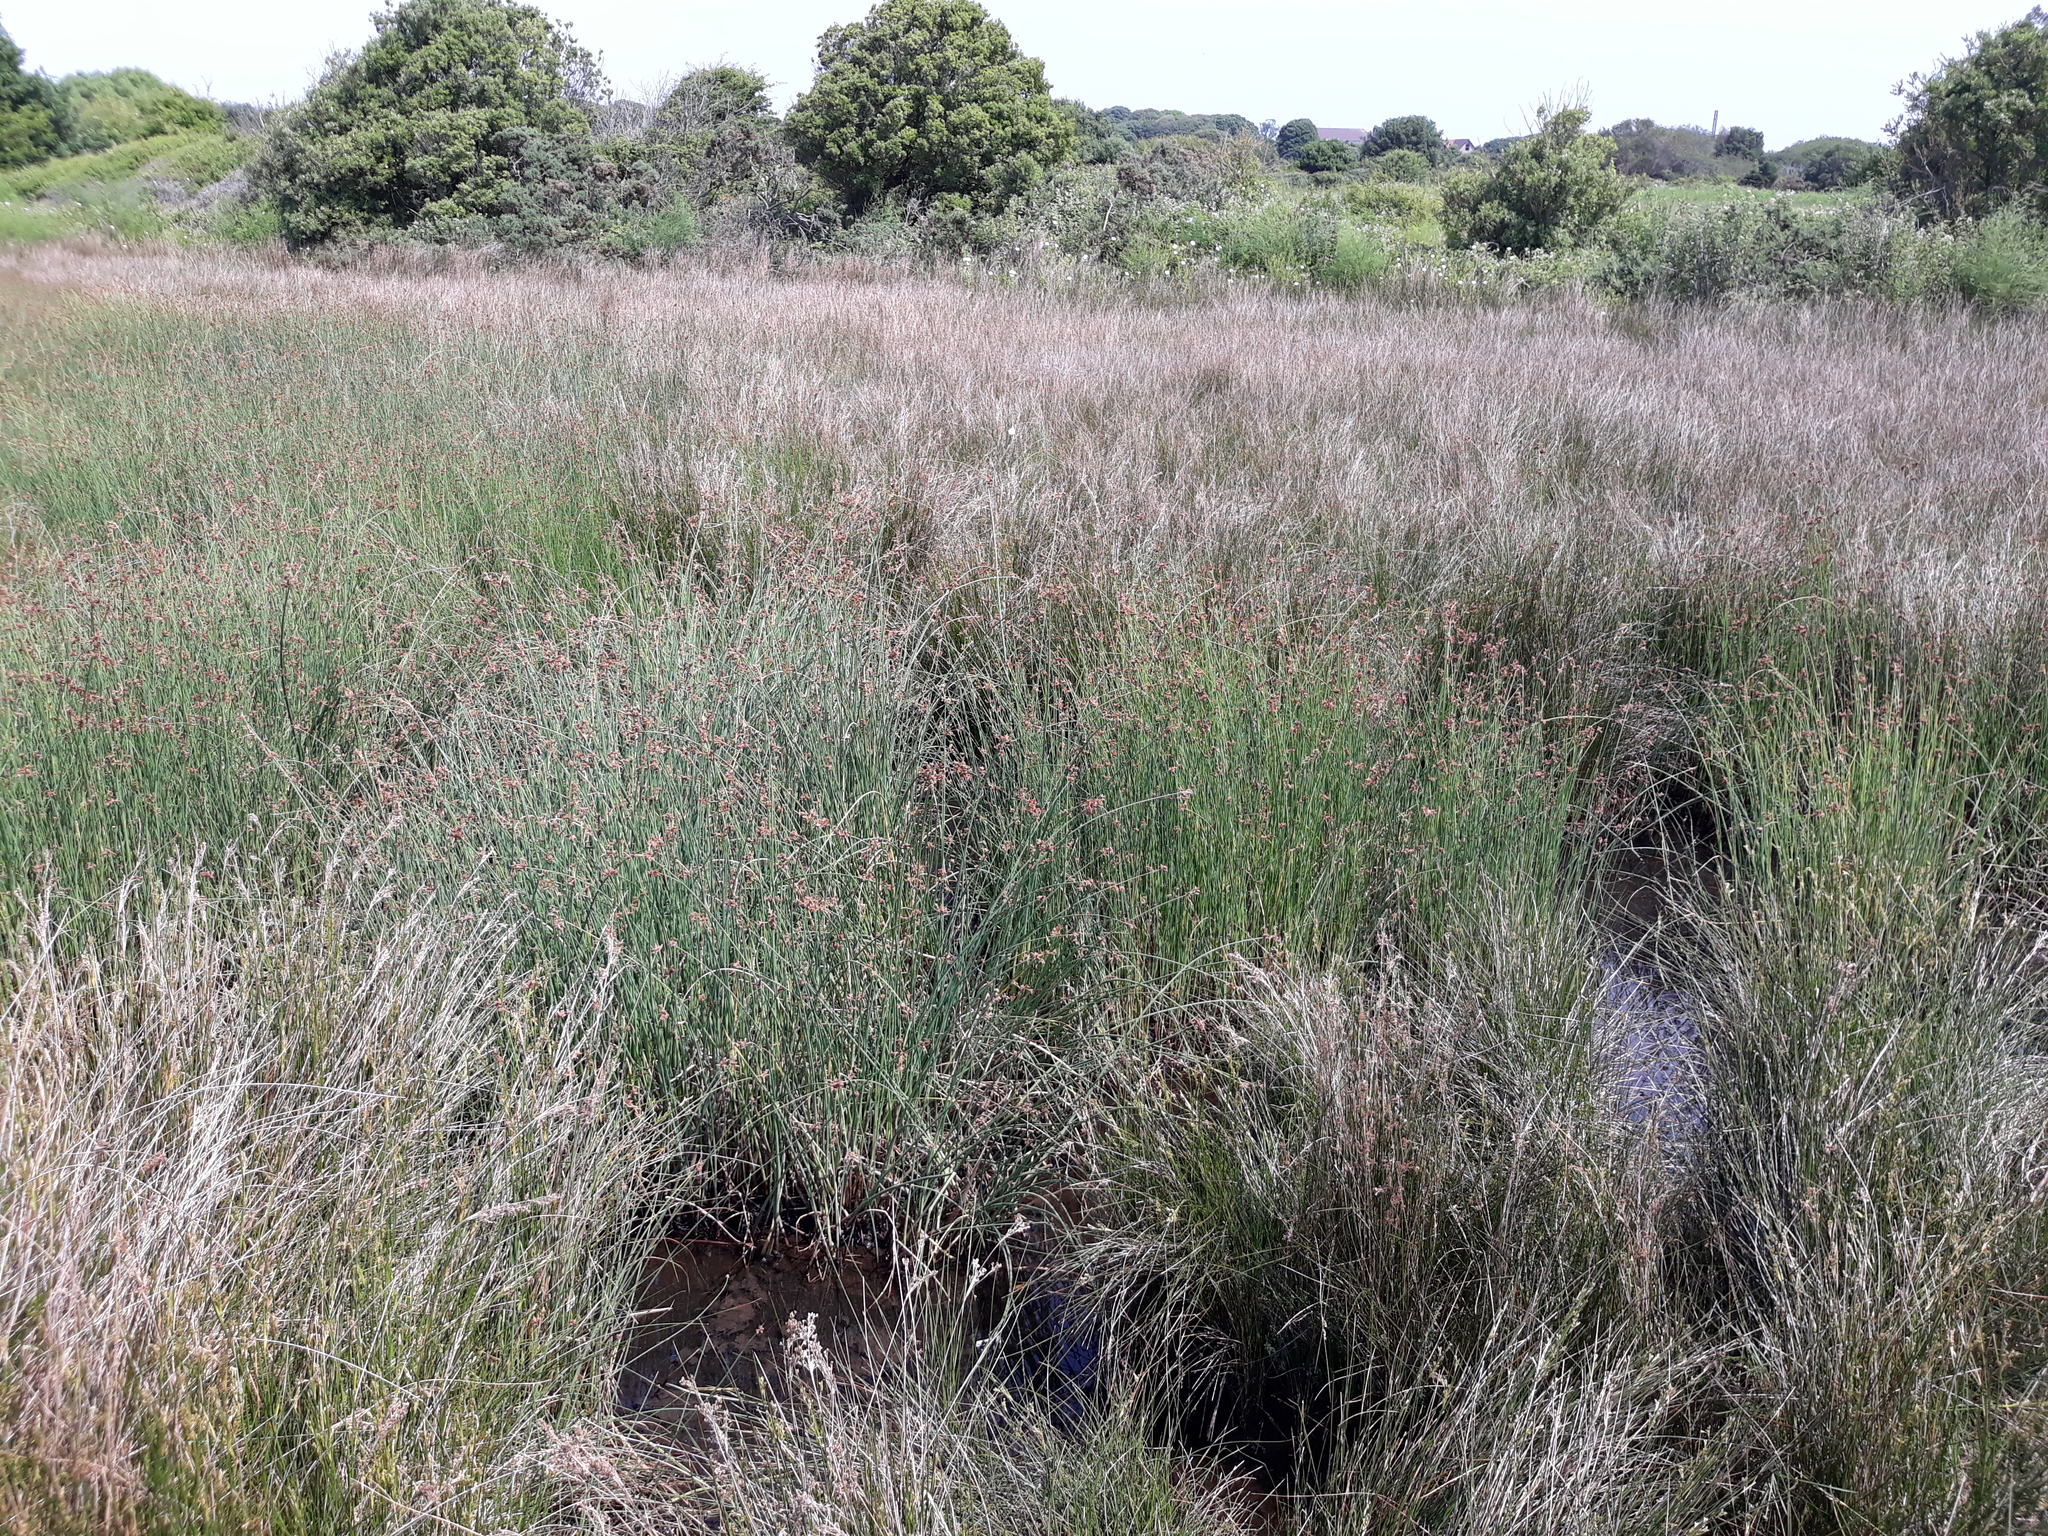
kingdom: Plantae
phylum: Tracheophyta
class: Liliopsida
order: Poales
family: Juncaceae
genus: Juncus
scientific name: Juncus inflexus
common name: Hard rush
